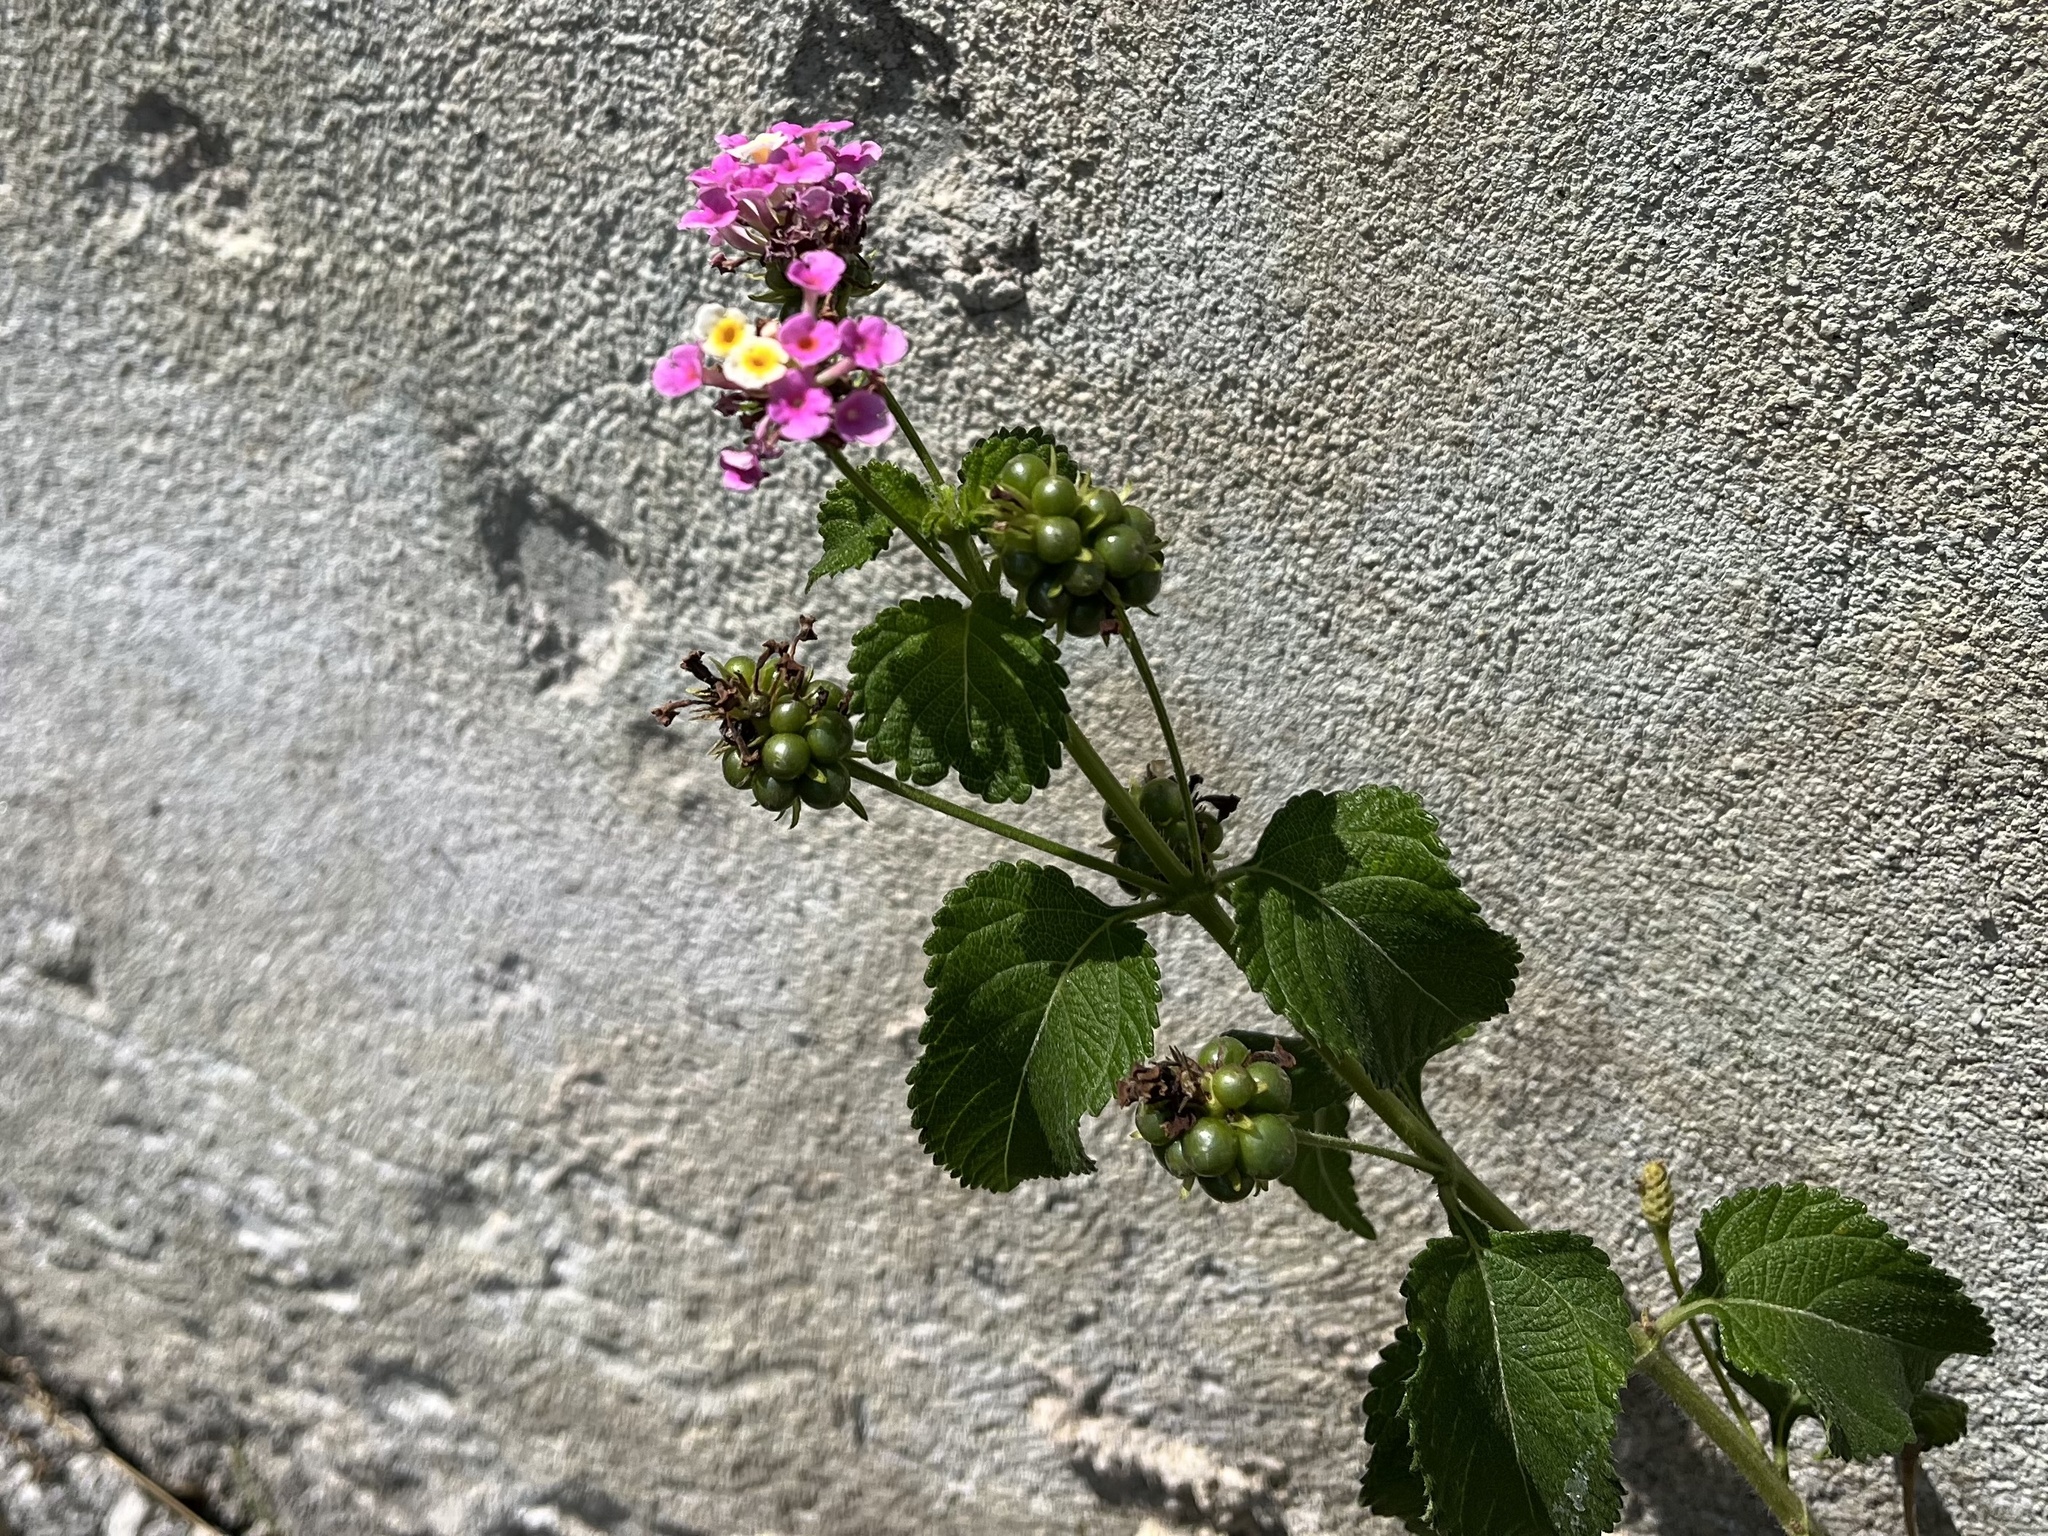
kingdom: Plantae
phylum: Tracheophyta
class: Magnoliopsida
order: Lamiales
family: Verbenaceae
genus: Lantana
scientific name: Lantana camara
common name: Lantana
